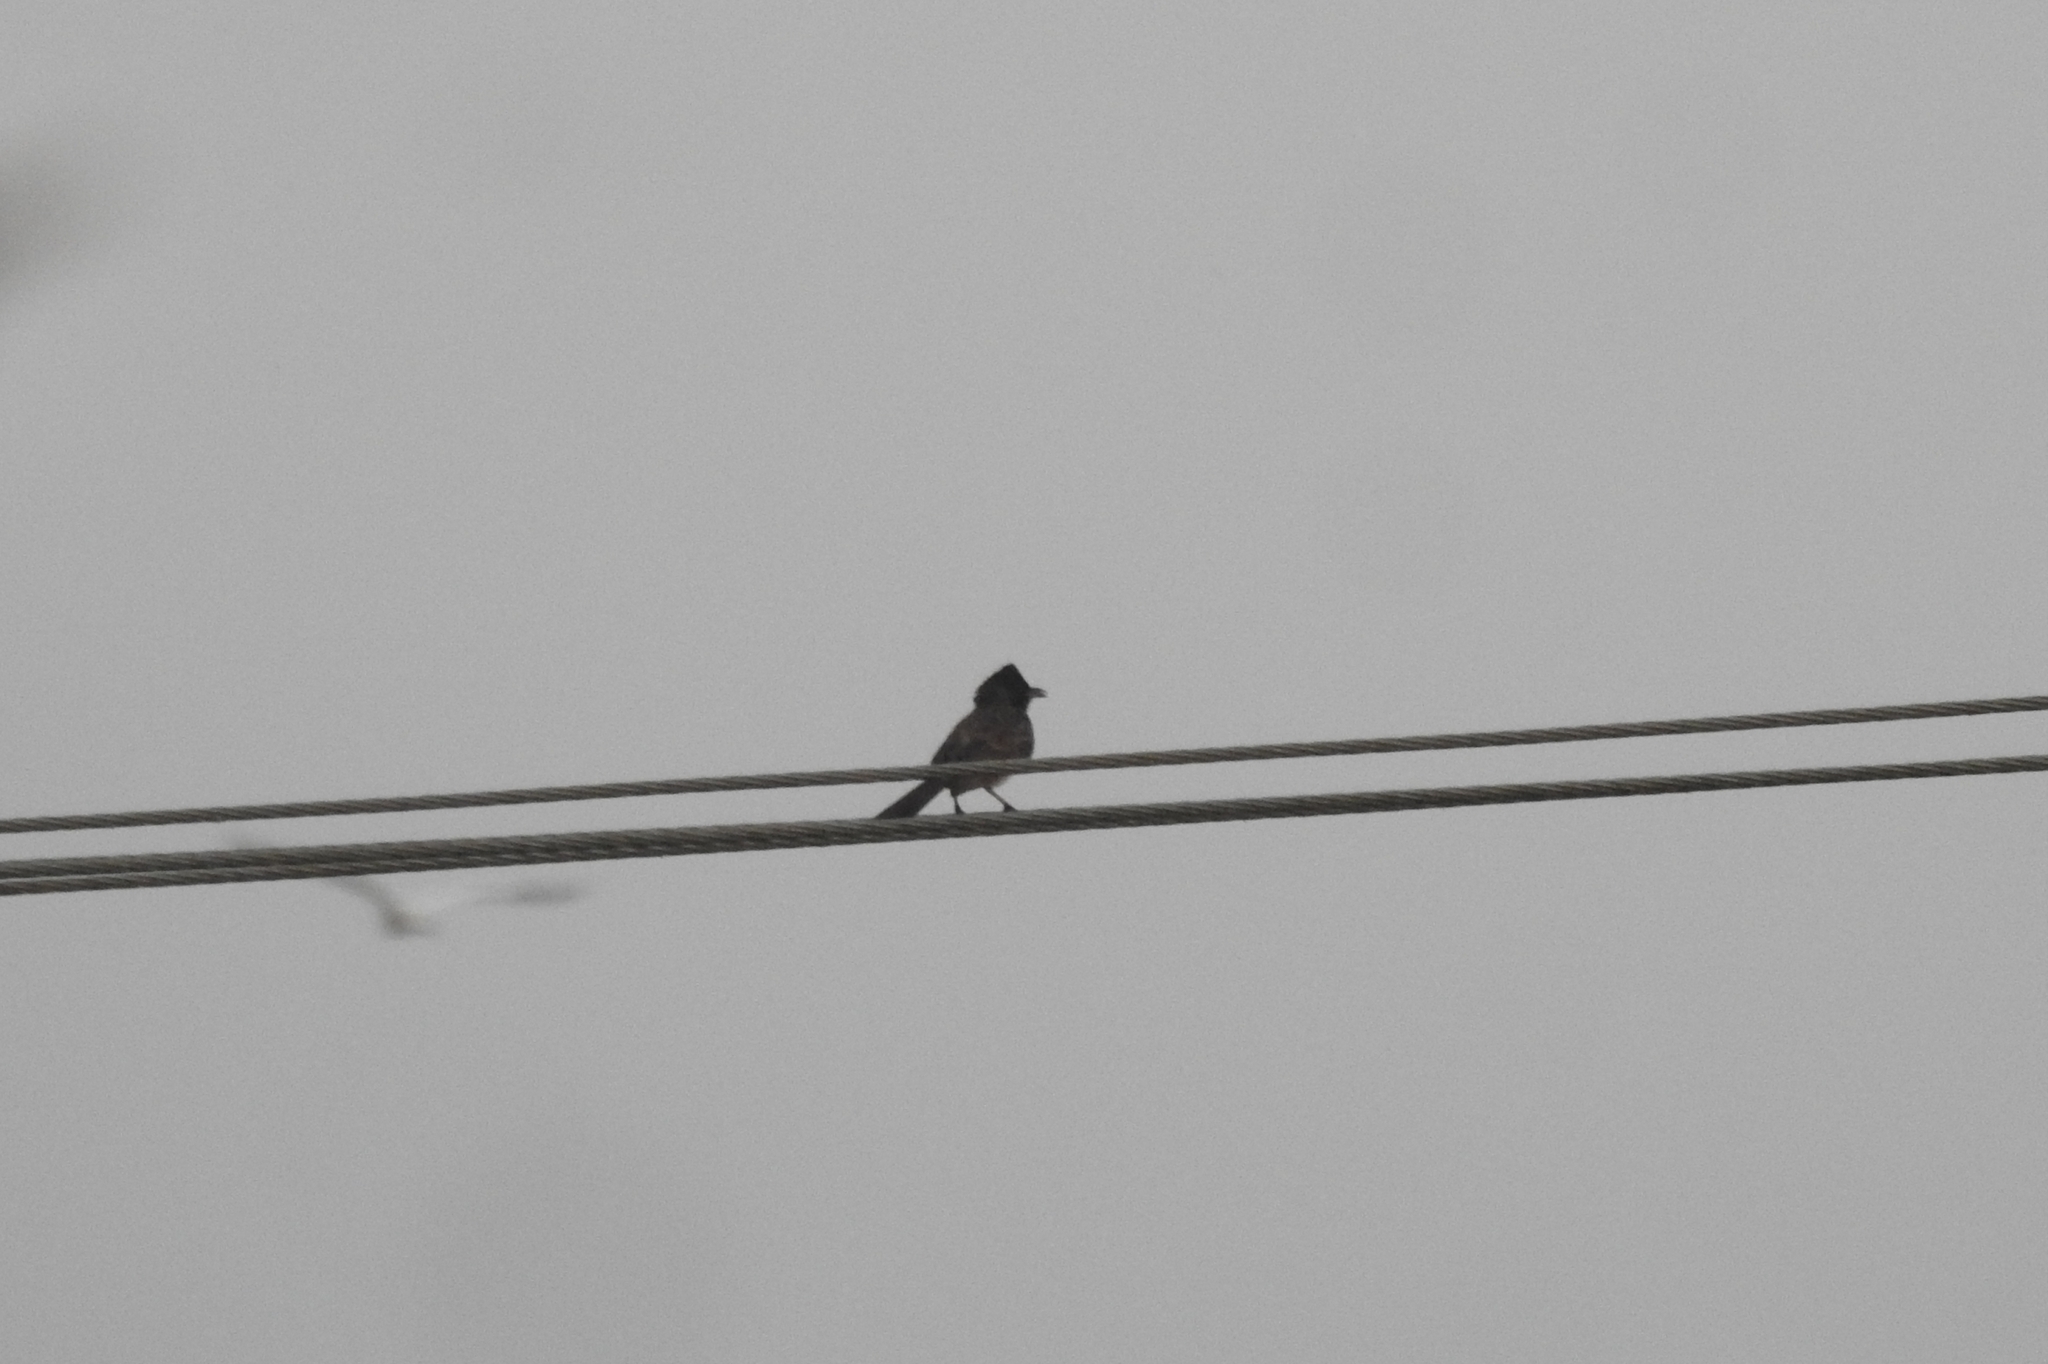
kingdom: Animalia
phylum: Chordata
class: Aves
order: Passeriformes
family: Pycnonotidae
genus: Pycnonotus
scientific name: Pycnonotus cafer
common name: Red-vented bulbul
